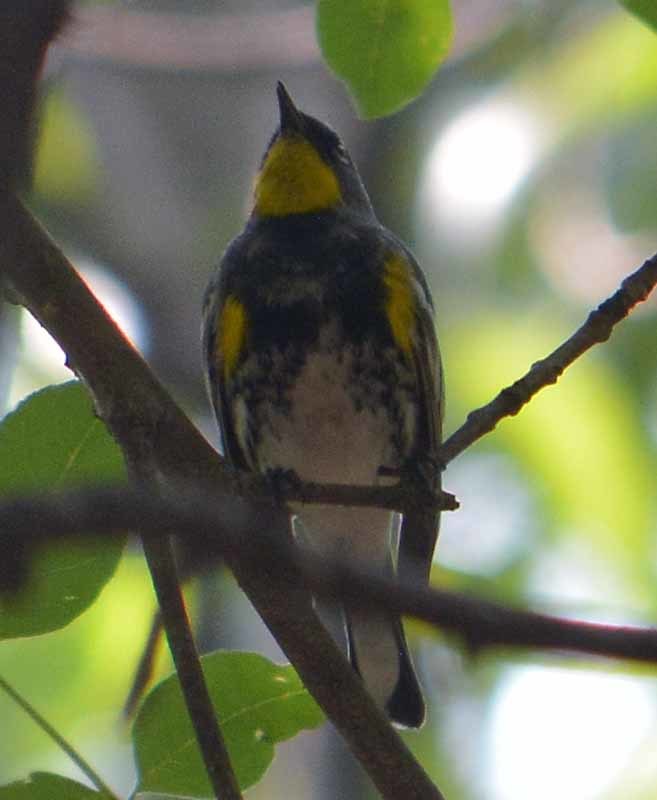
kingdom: Animalia
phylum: Chordata
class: Aves
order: Passeriformes
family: Parulidae
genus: Setophaga
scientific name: Setophaga auduboni
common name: Audubon's warbler
